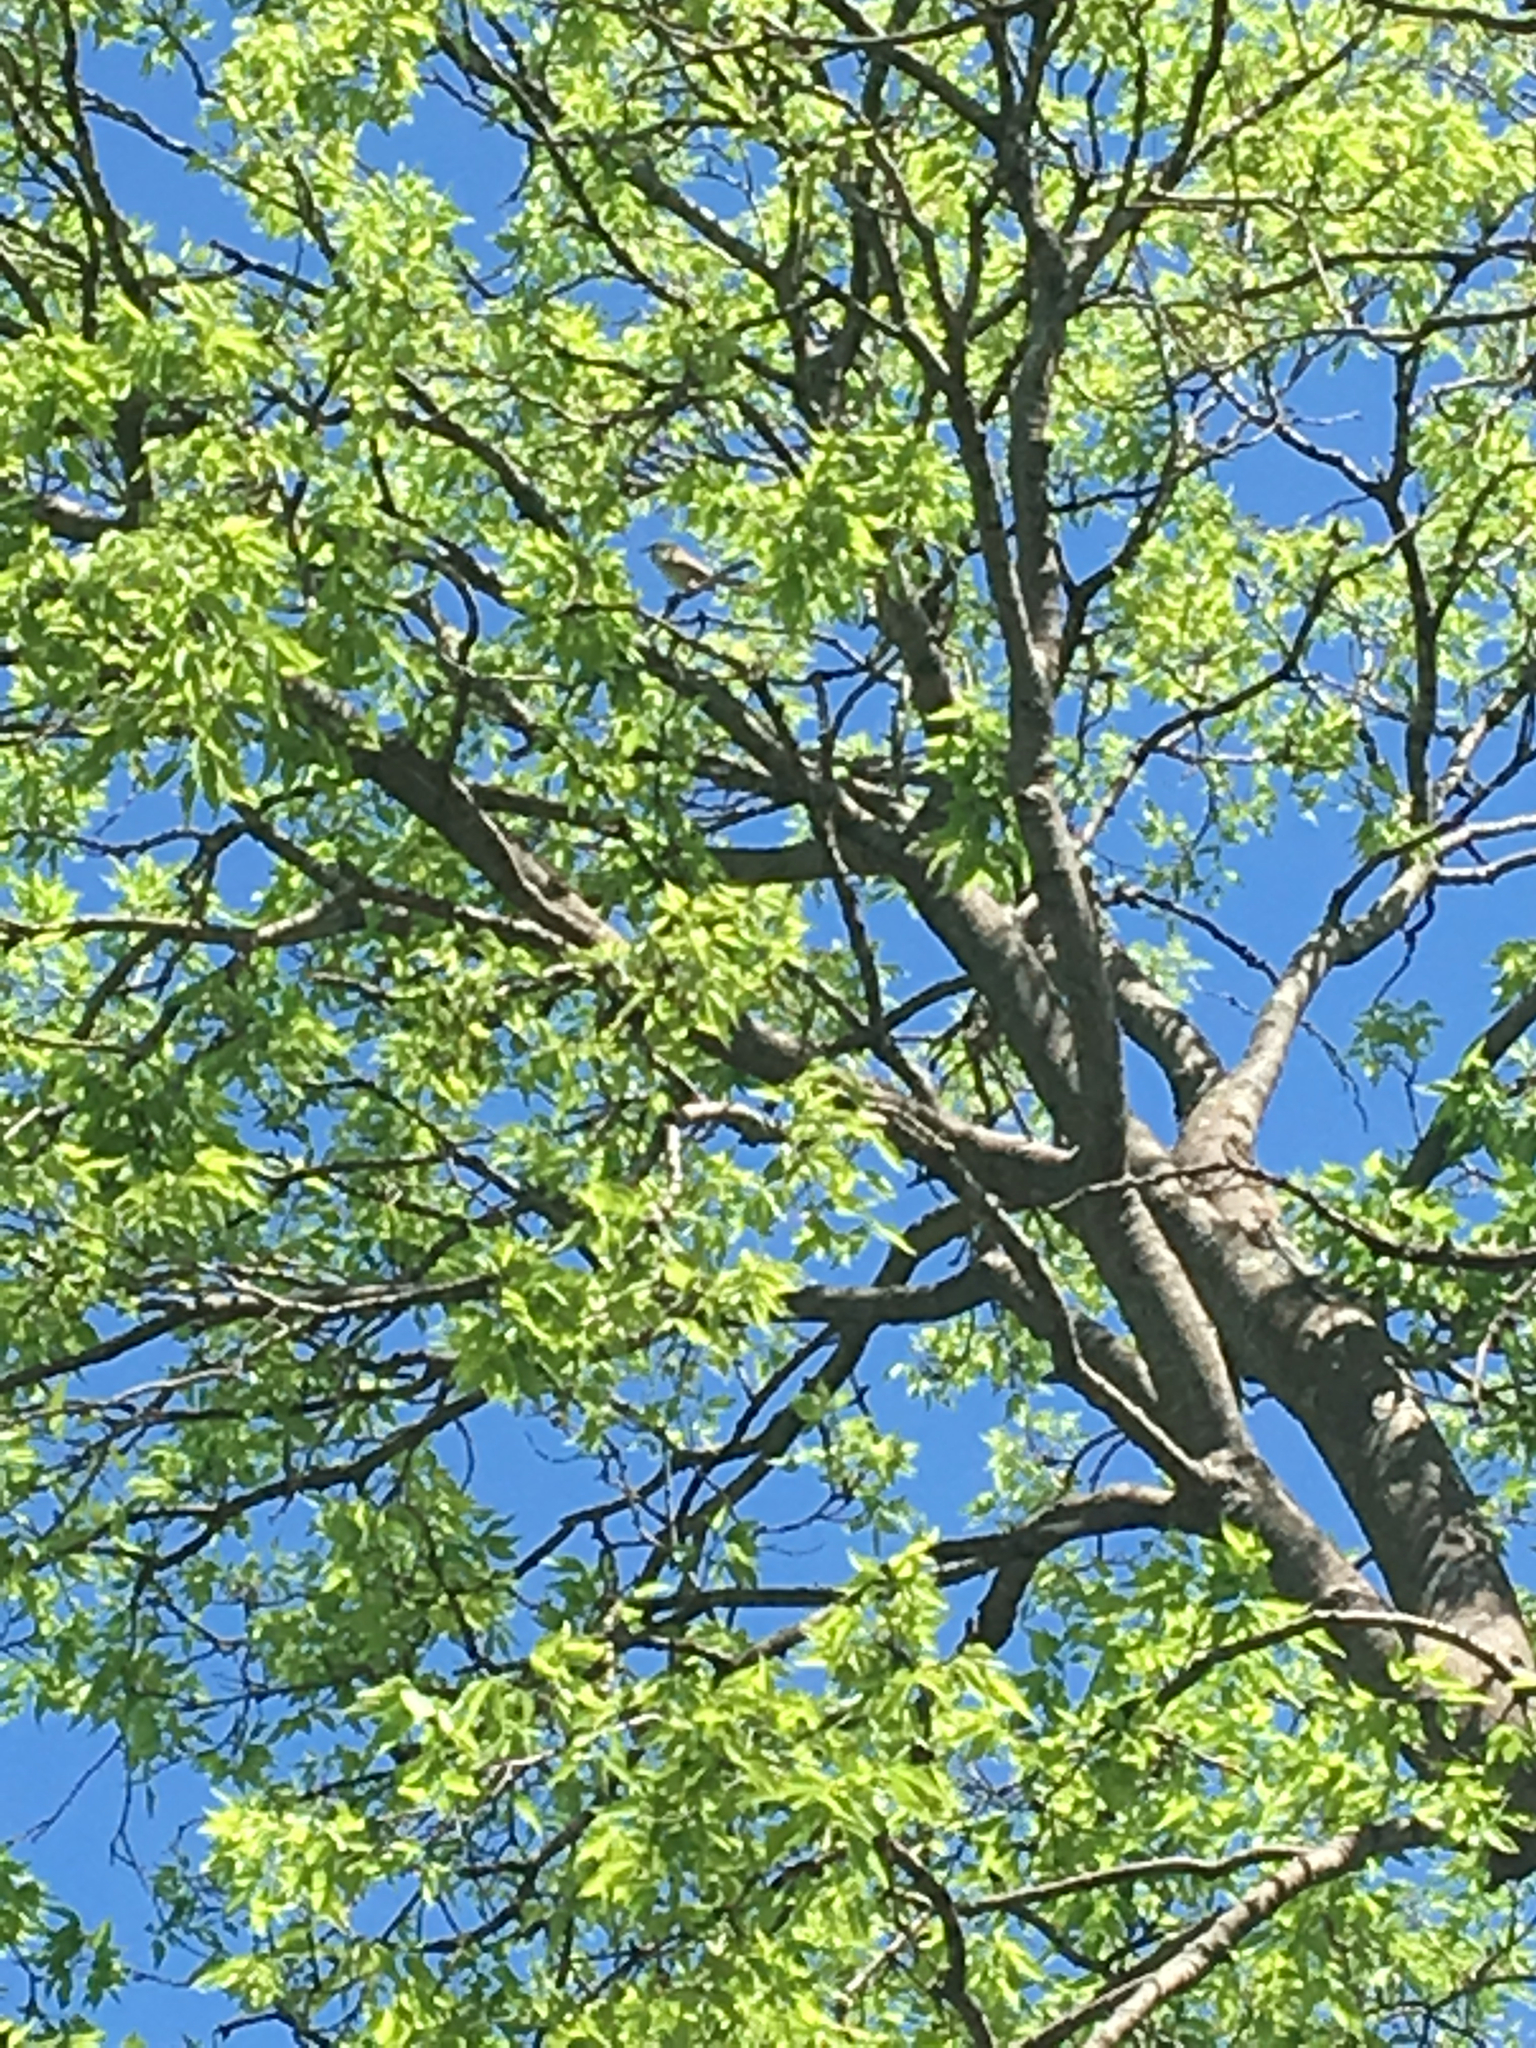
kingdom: Animalia
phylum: Chordata
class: Aves
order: Passeriformes
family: Troglodytidae
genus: Thryomanes
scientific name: Thryomanes bewickii
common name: Bewick's wren
